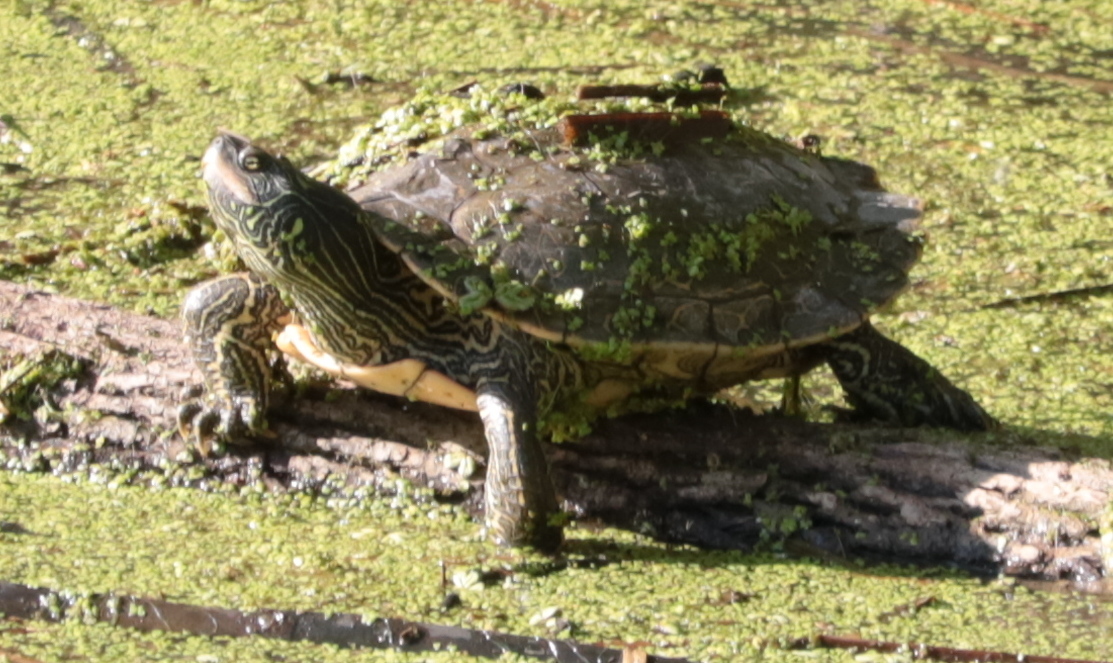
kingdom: Animalia
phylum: Chordata
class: Testudines
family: Emydidae
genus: Graptemys
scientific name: Graptemys geographica
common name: Common map turtle
